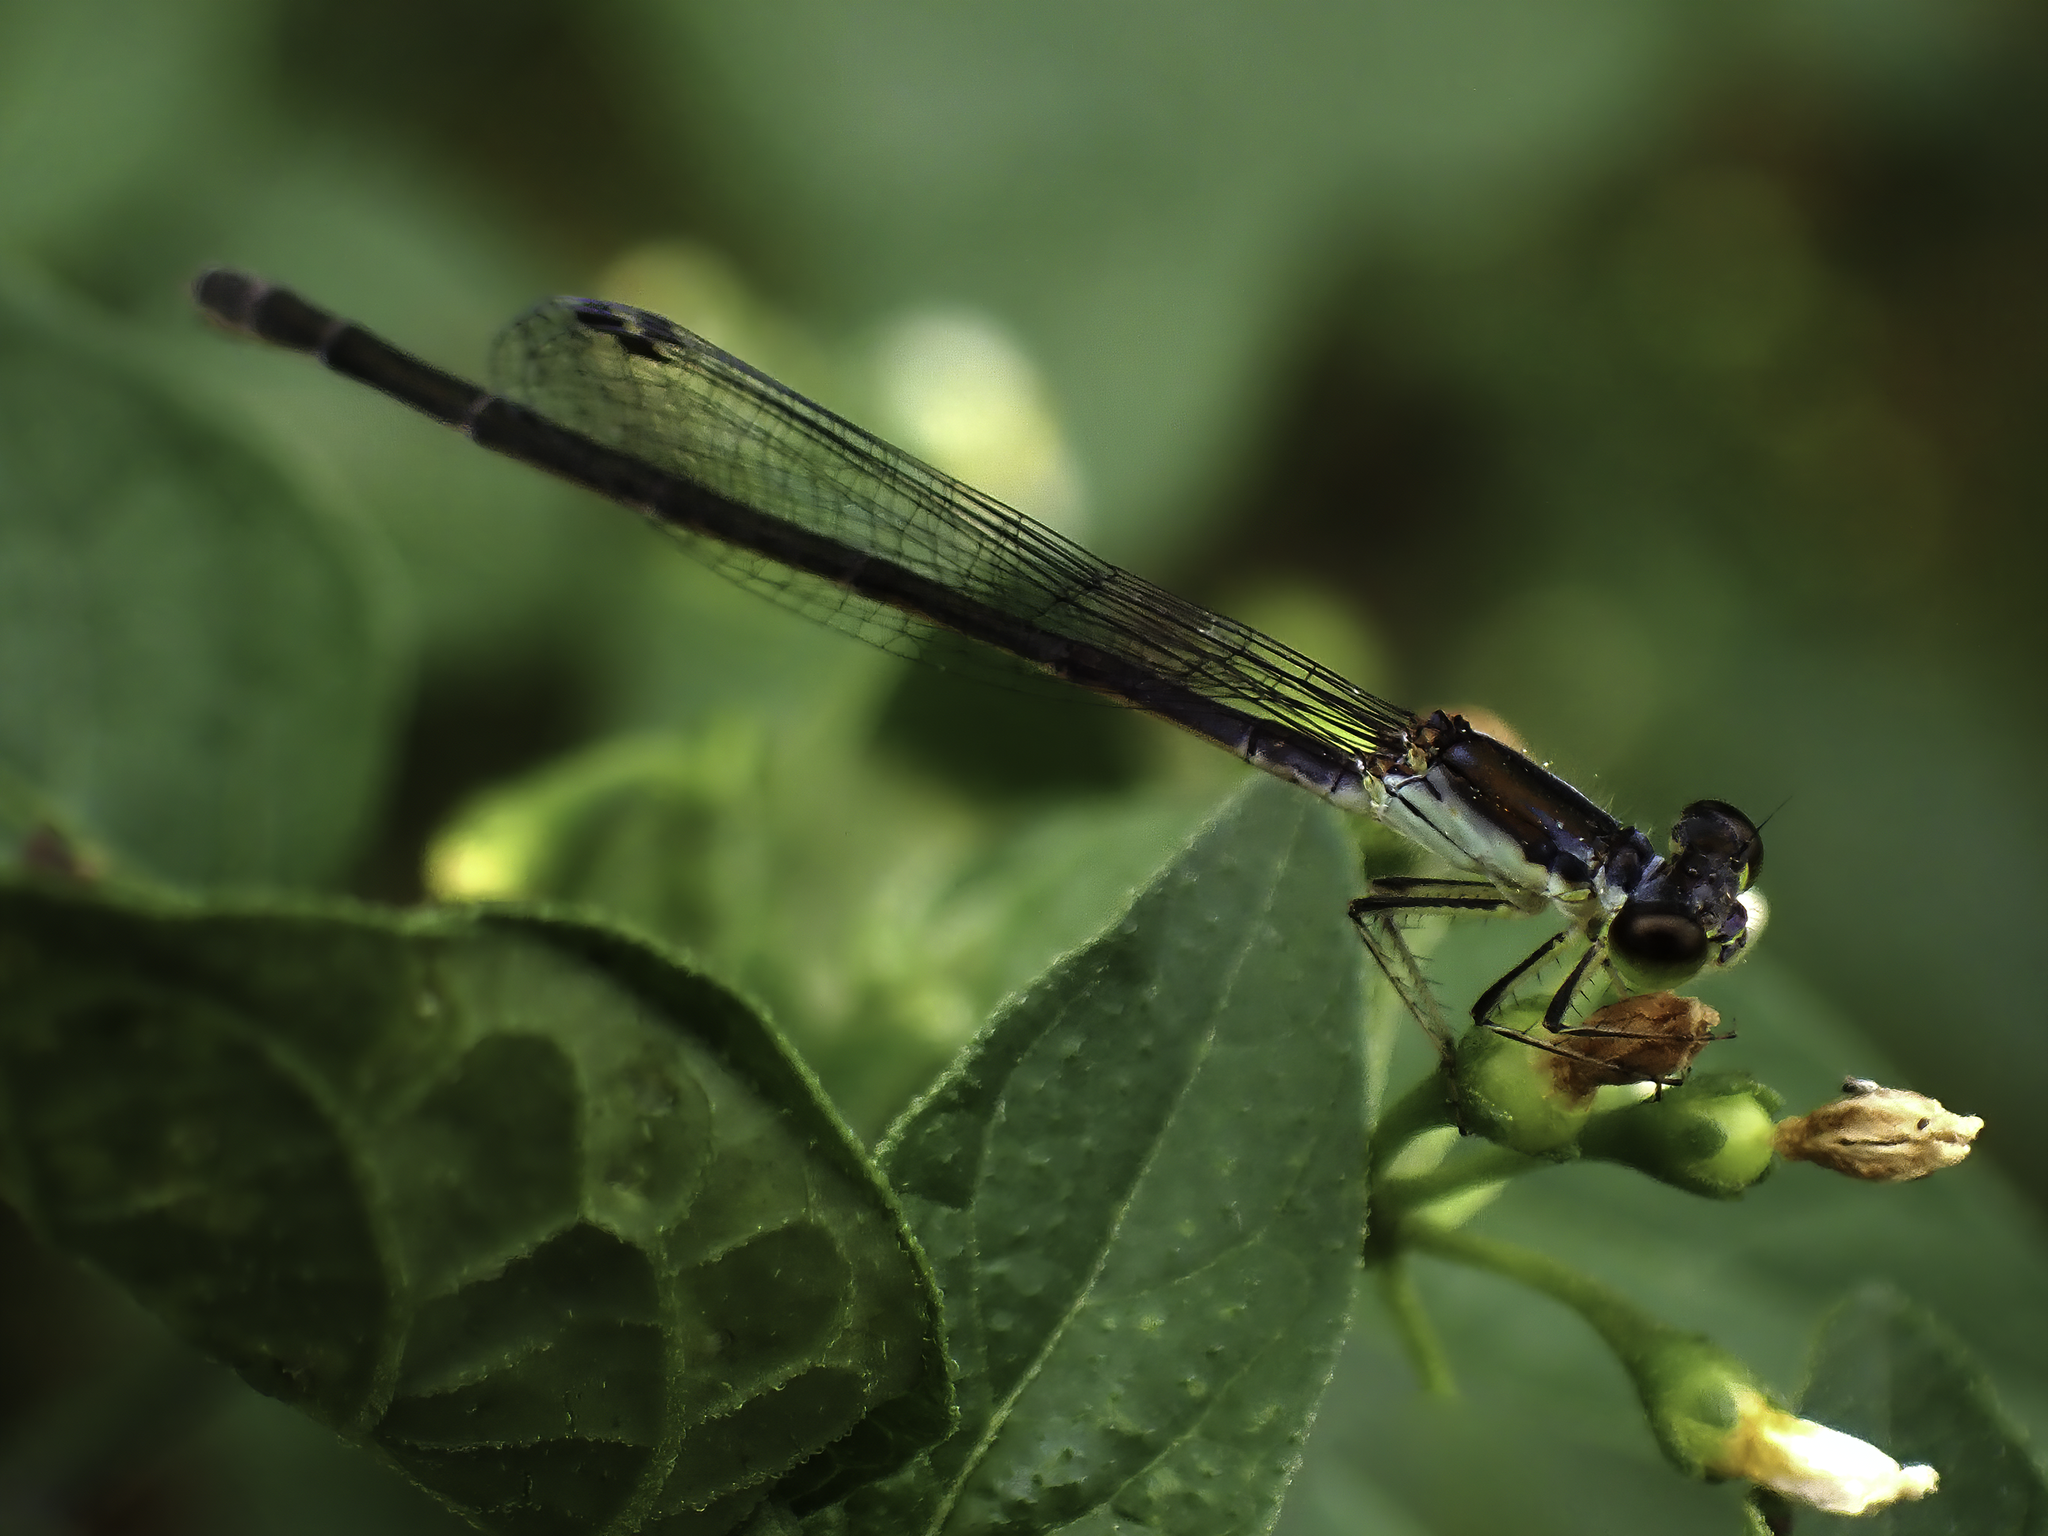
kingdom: Animalia
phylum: Arthropoda
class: Insecta
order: Odonata
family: Coenagrionidae
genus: Ischnura
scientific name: Ischnura posita
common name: Fragile forktail
